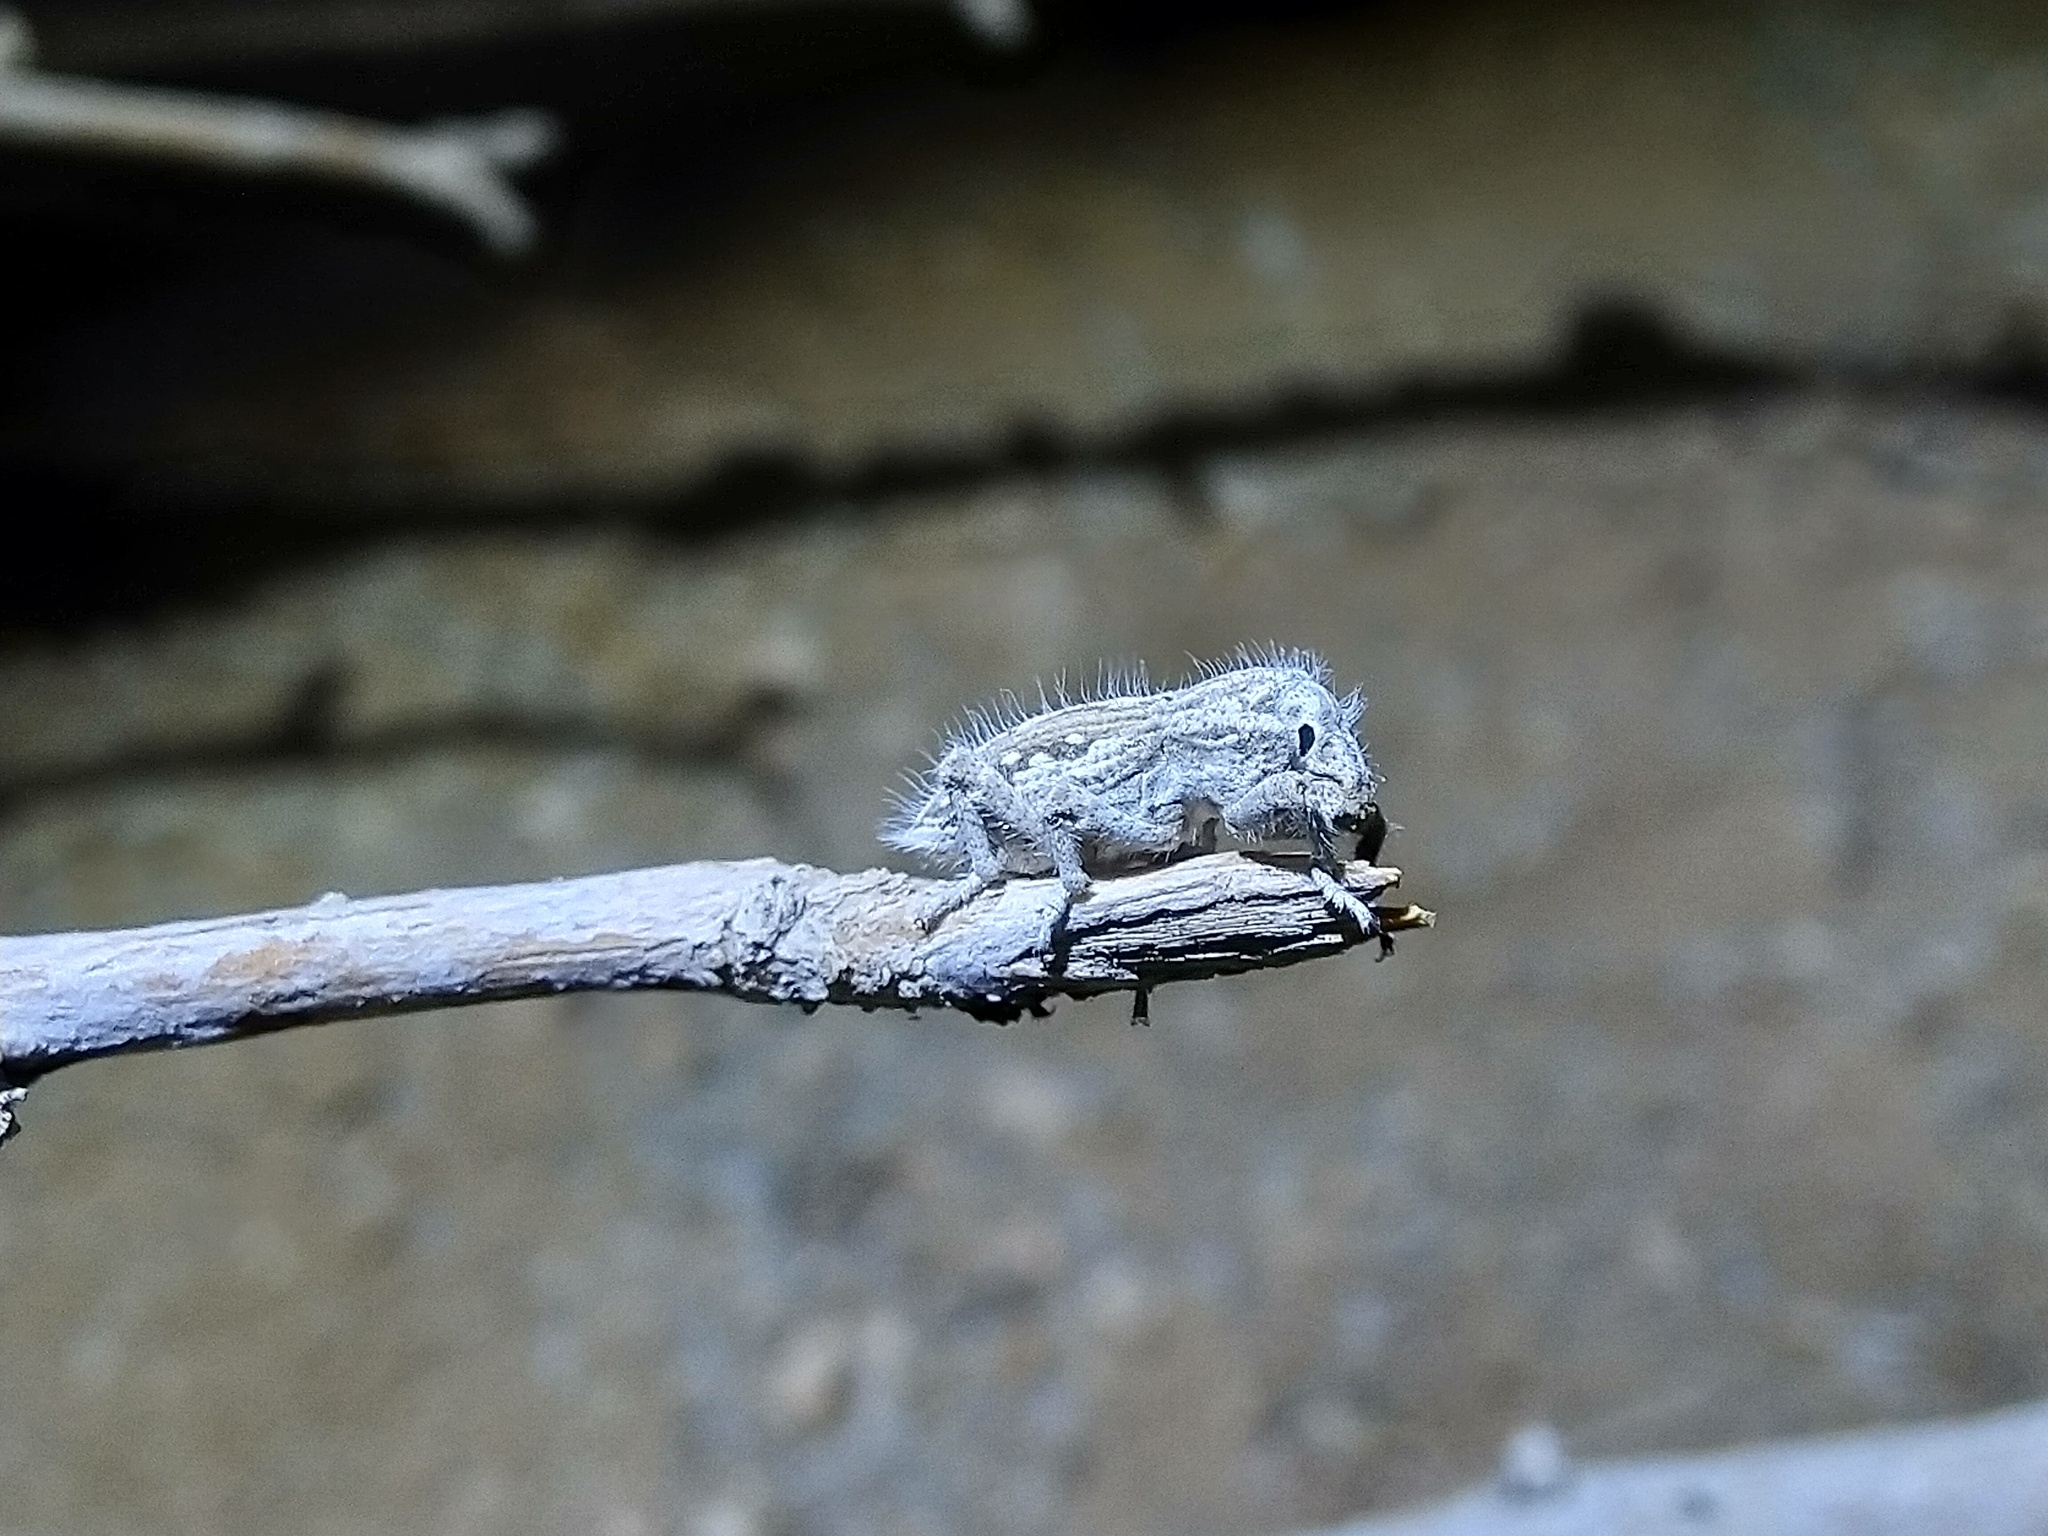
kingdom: Animalia
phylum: Arthropoda
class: Insecta
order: Coleoptera
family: Curculionidae
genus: Trichocleonus
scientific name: Trichocleonus leucophyllus
